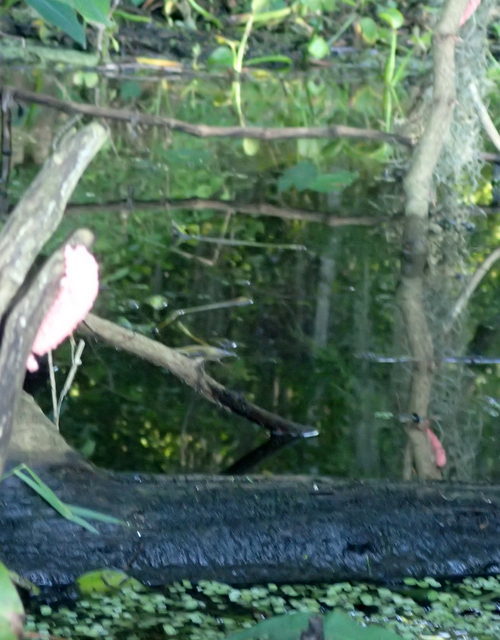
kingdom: Animalia
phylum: Mollusca
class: Gastropoda
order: Architaenioglossa
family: Ampullariidae
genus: Pomacea
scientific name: Pomacea maculata
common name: Giant applesnail
